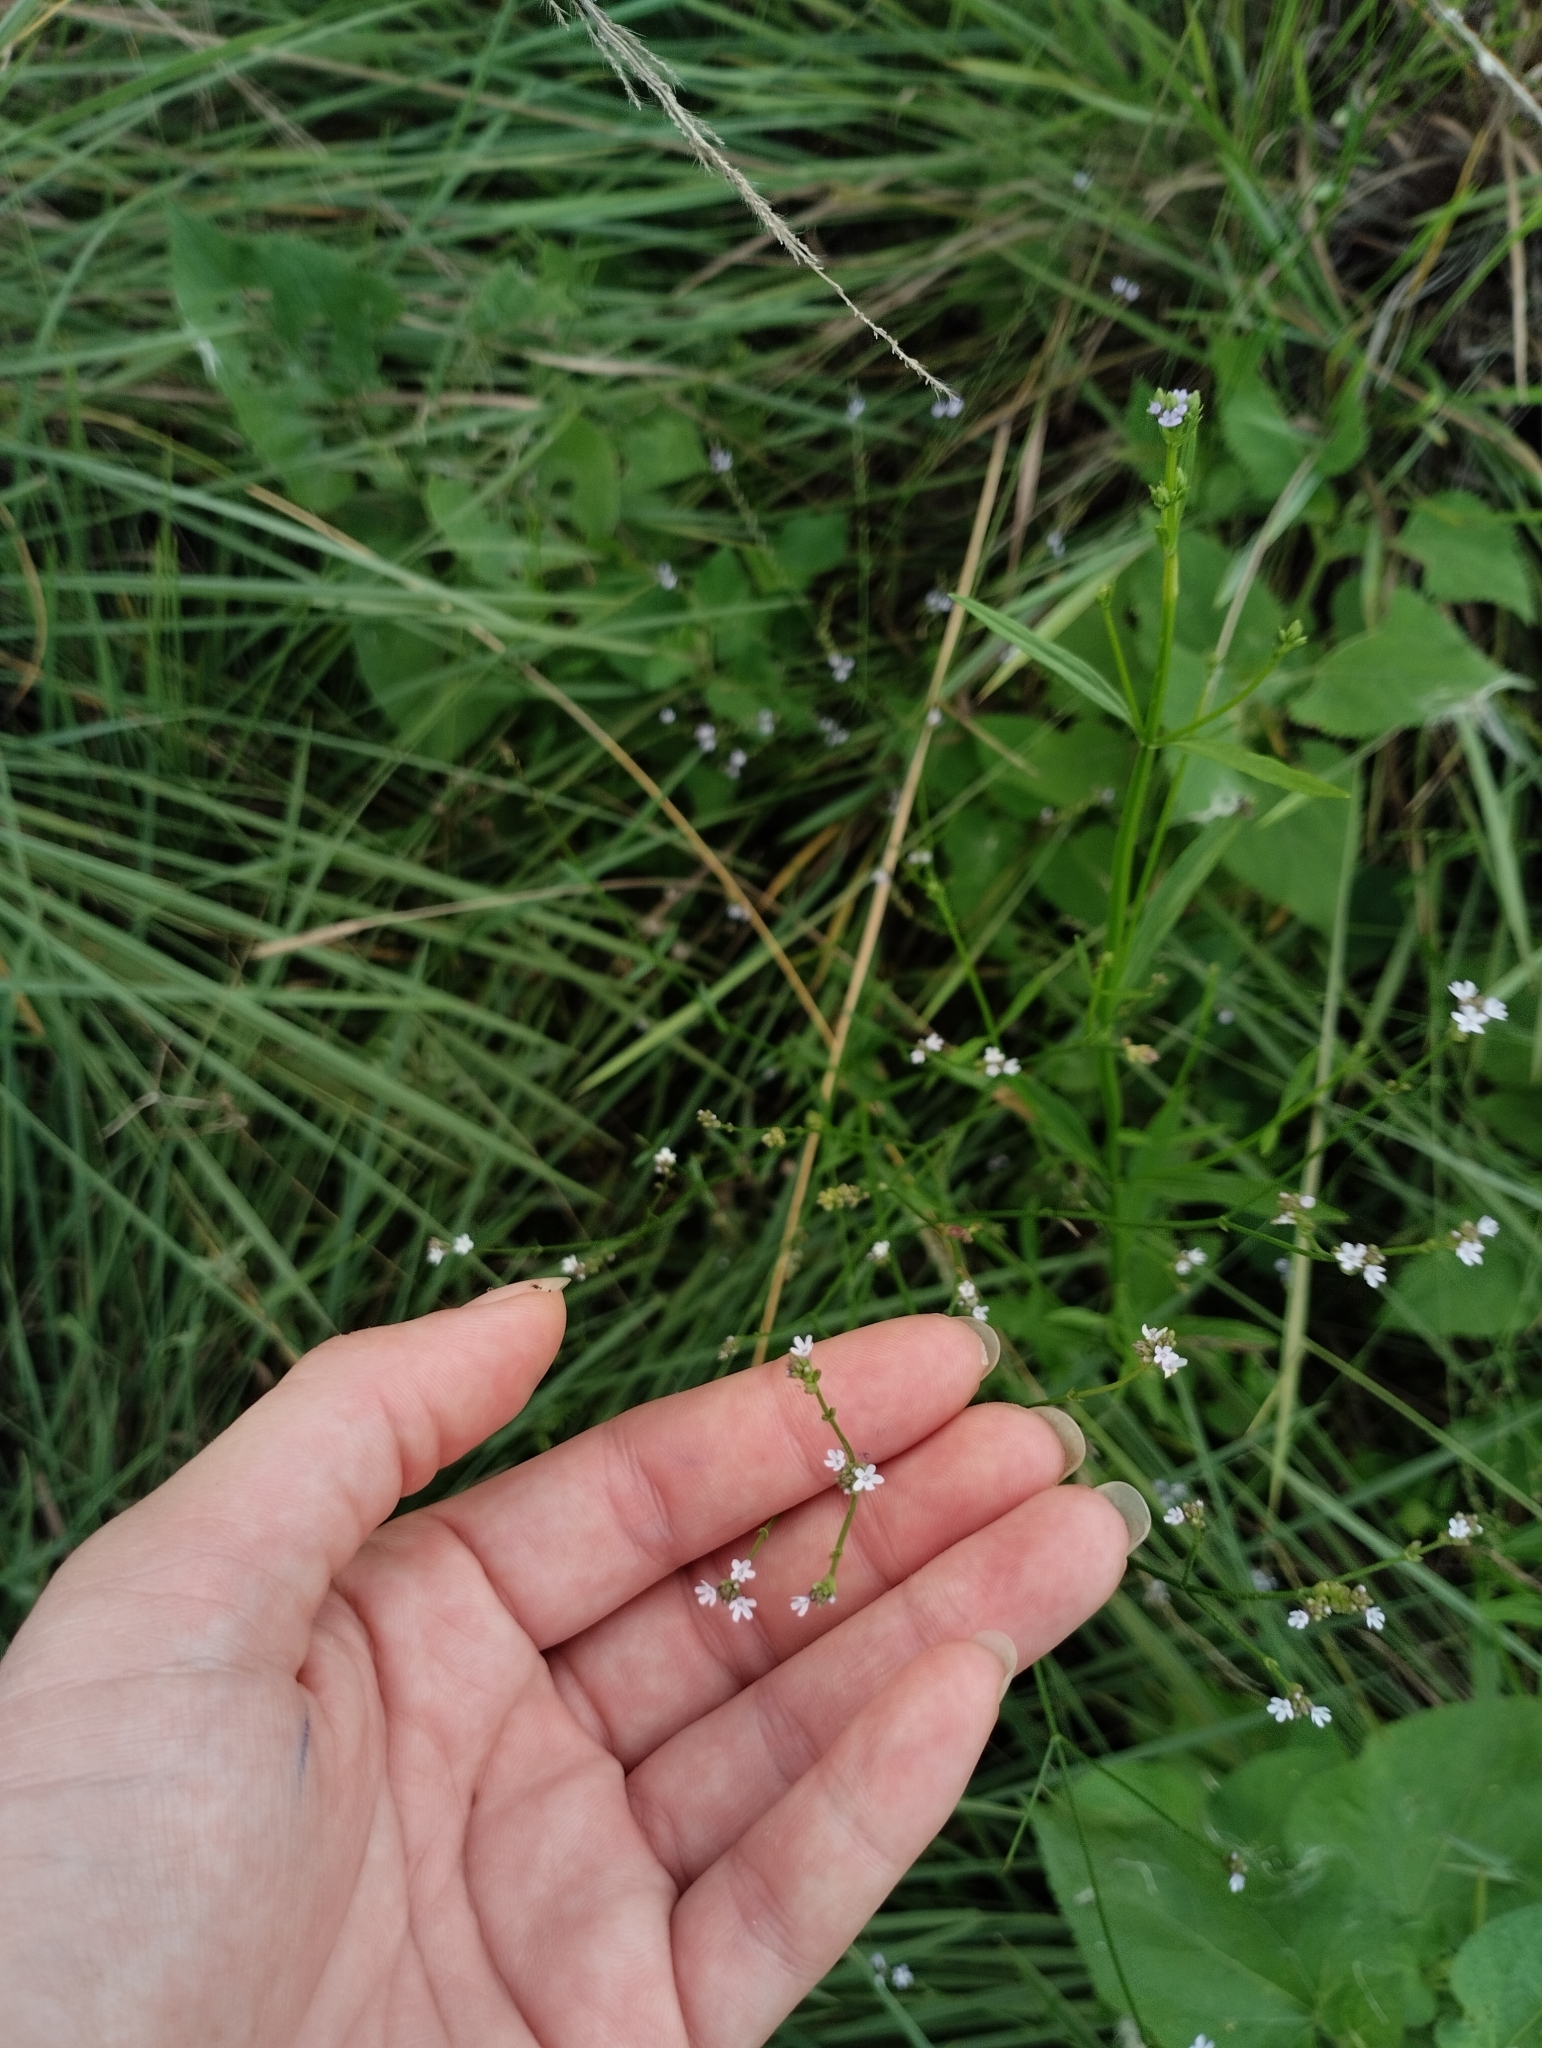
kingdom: Plantae
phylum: Tracheophyta
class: Magnoliopsida
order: Lamiales
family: Verbenaceae
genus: Verbena
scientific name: Verbena montevidensis
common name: Uruguayan vervain
